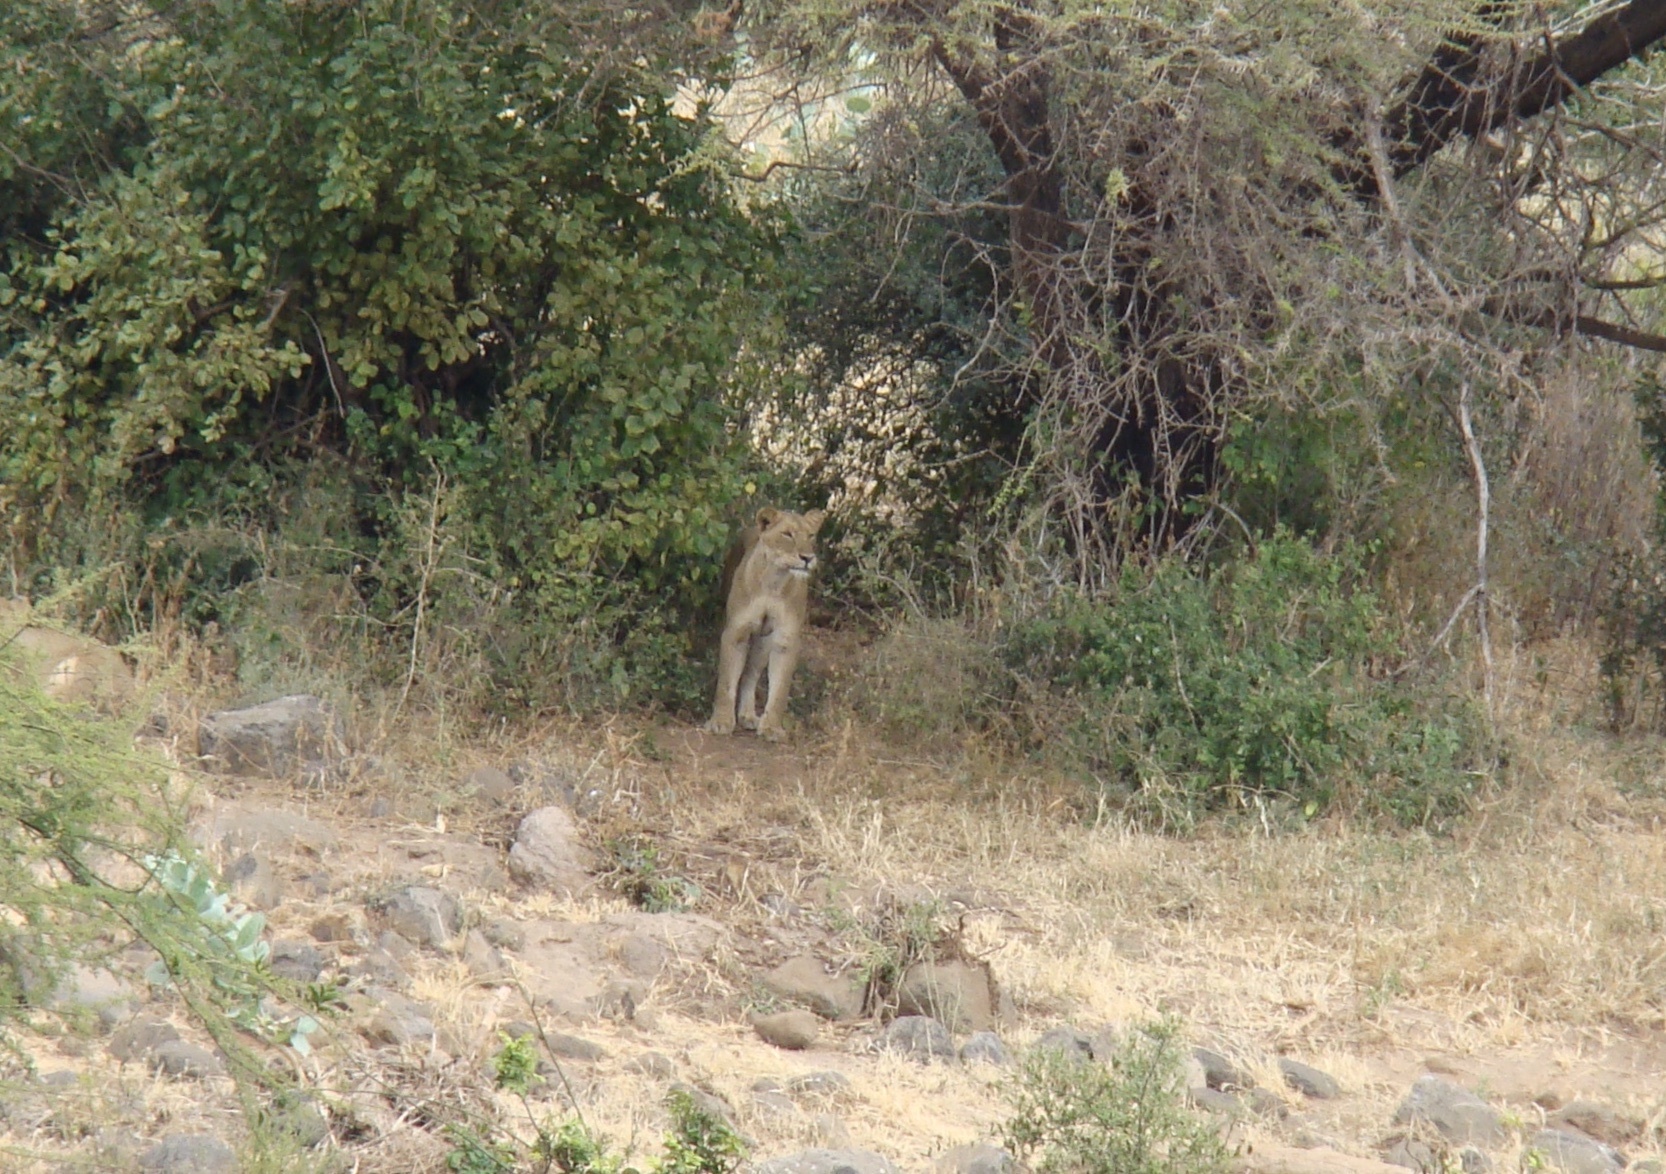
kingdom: Animalia
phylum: Chordata
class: Mammalia
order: Carnivora
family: Felidae
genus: Panthera
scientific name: Panthera leo
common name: Lion
